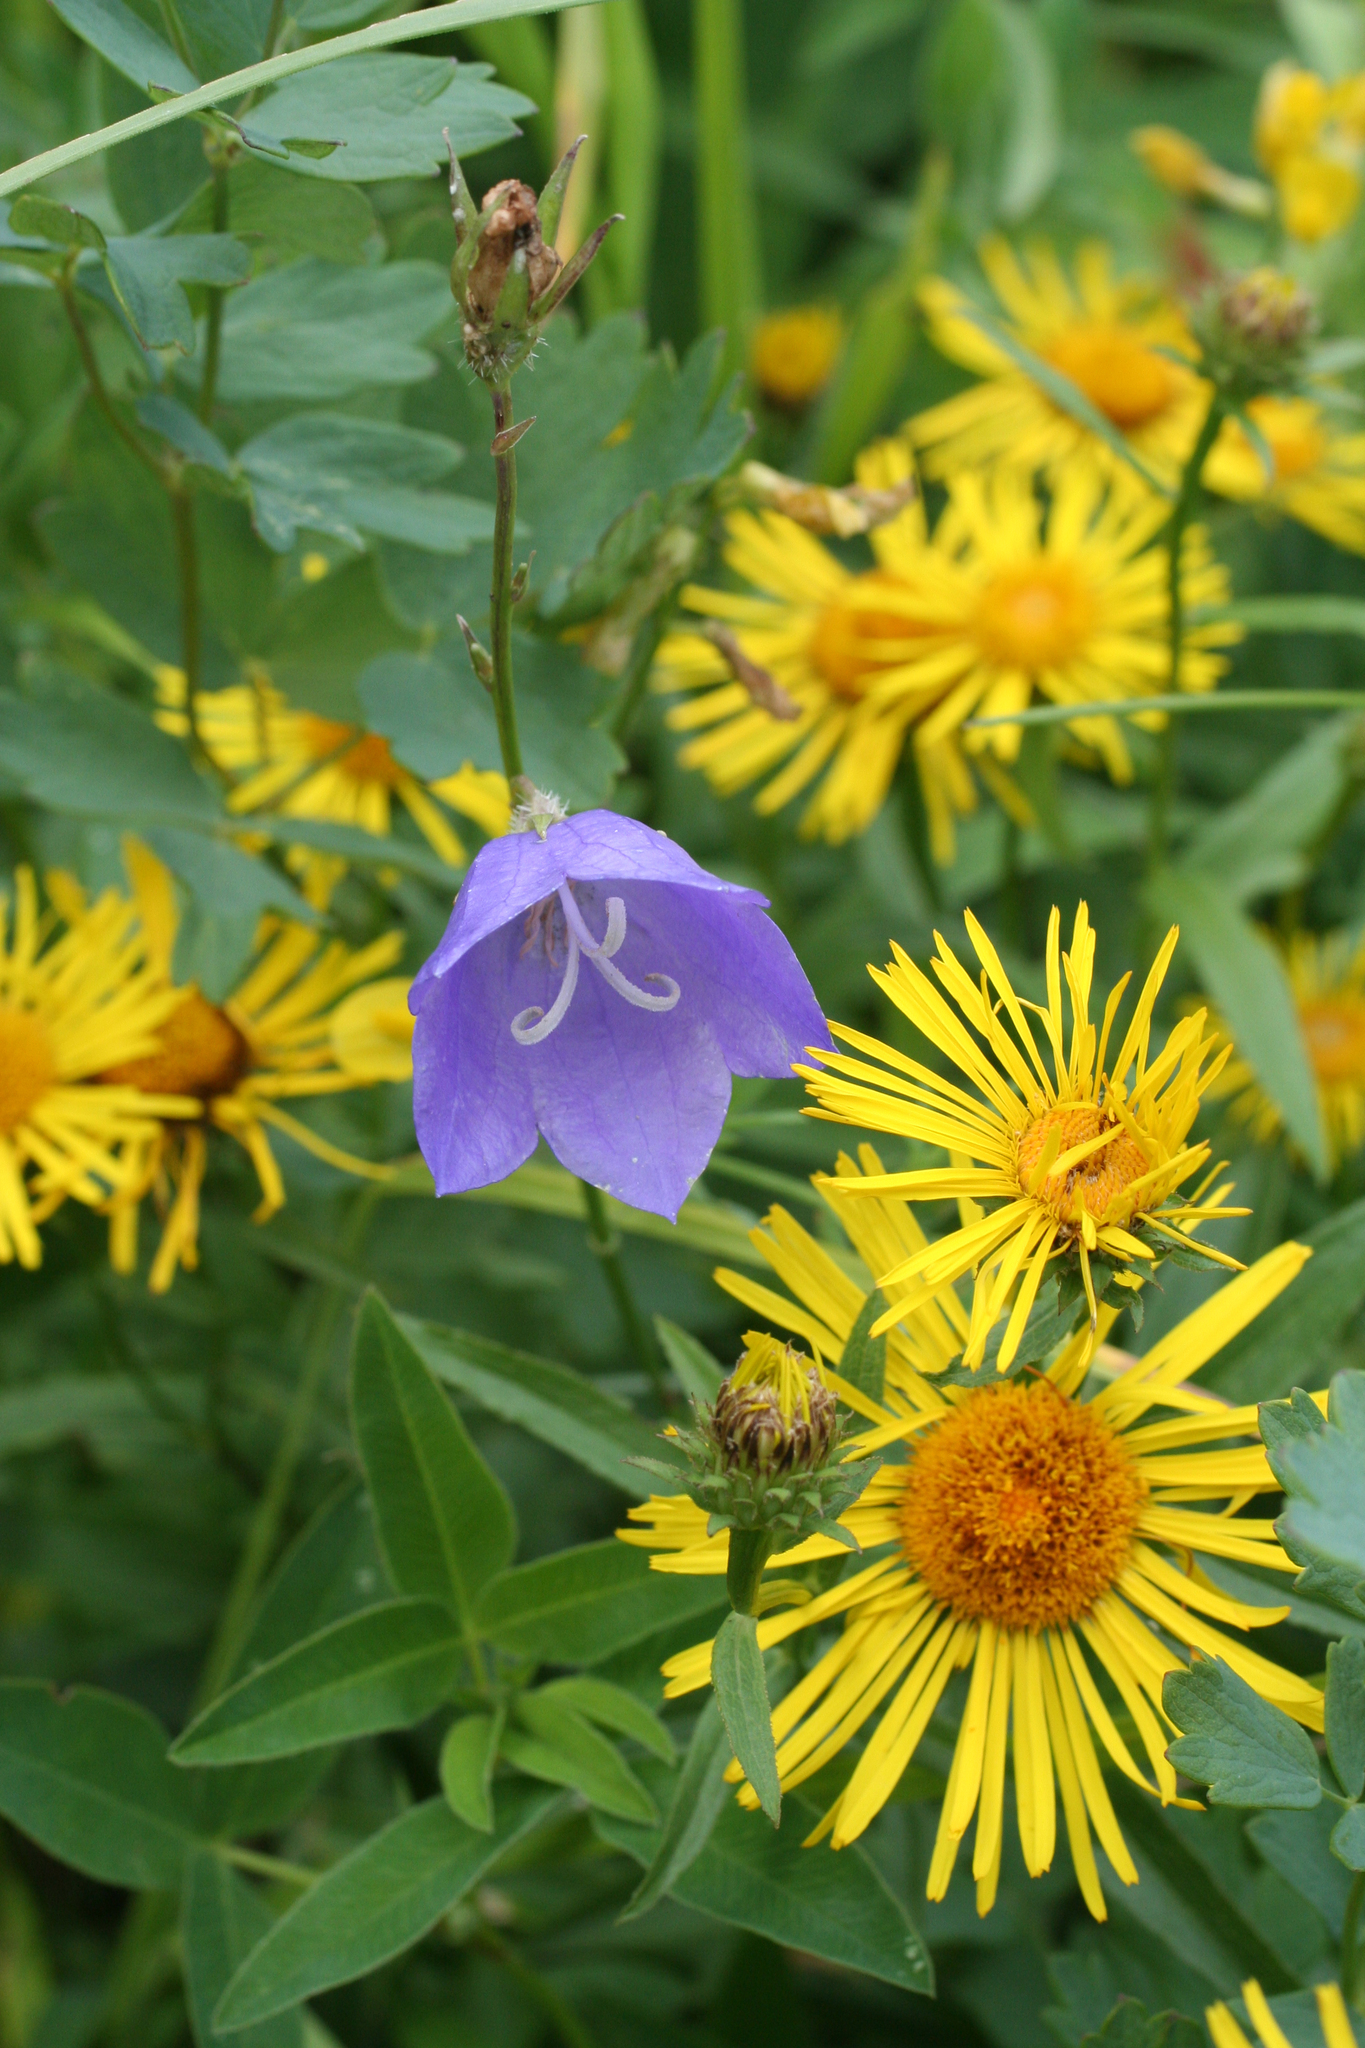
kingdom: Plantae
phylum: Tracheophyta
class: Magnoliopsida
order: Asterales
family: Campanulaceae
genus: Campanula
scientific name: Campanula persicifolia
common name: Peach-leaved bellflower
